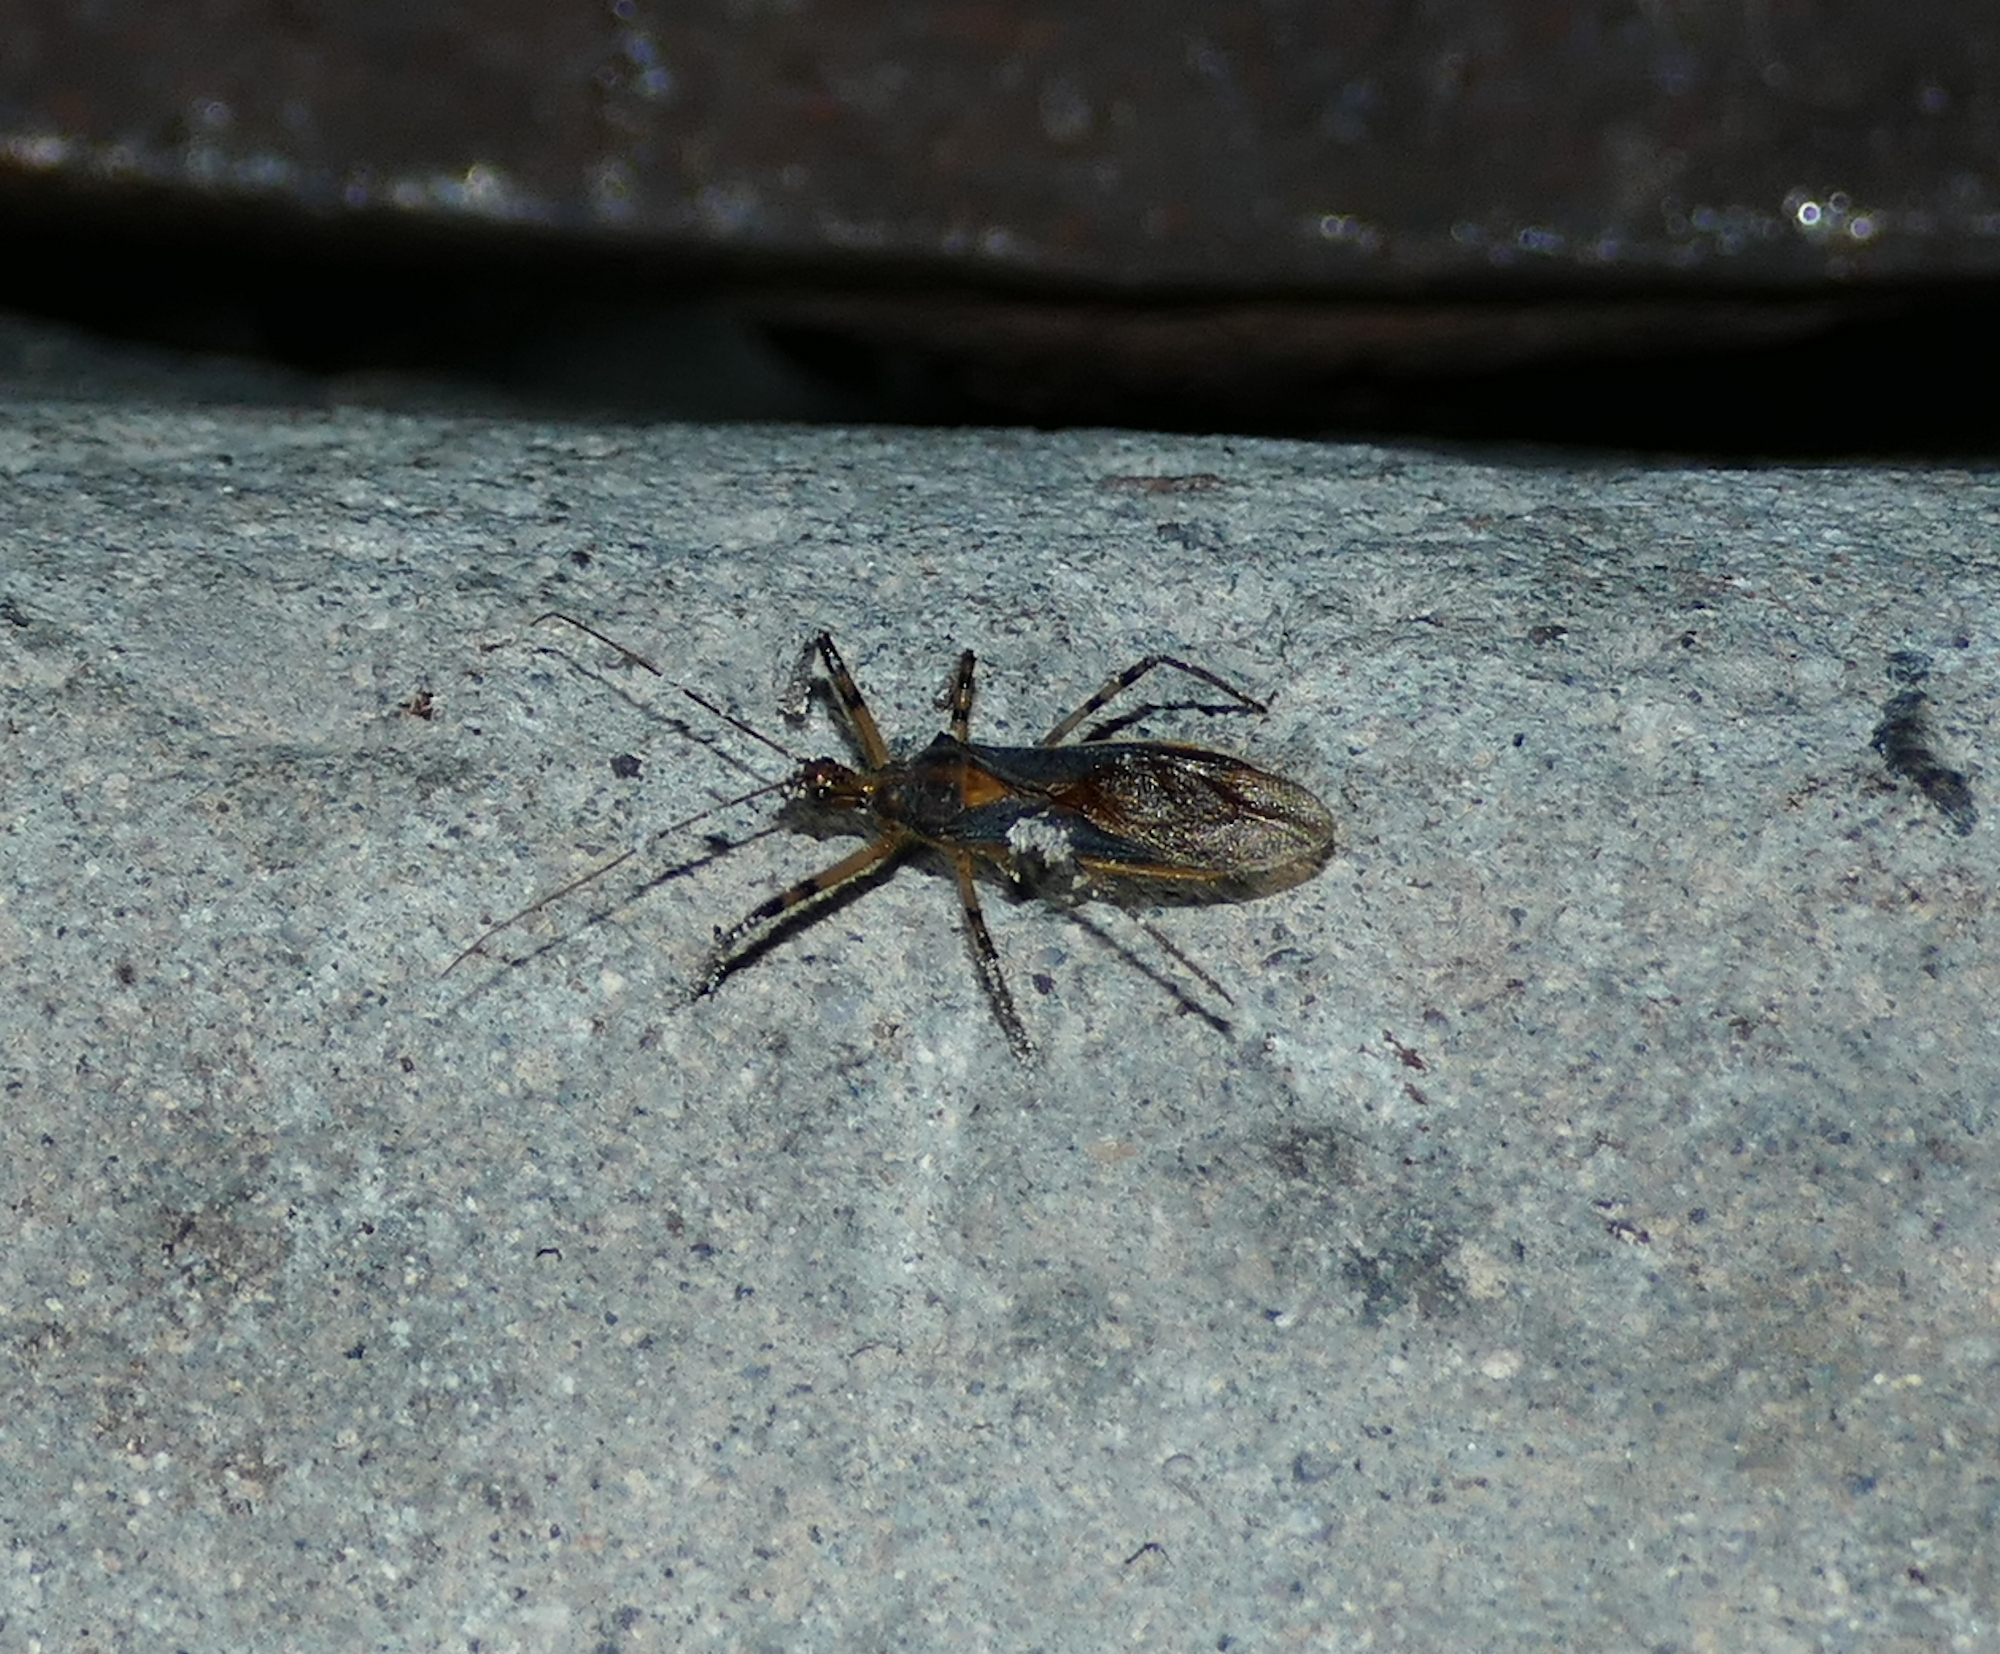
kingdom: Animalia
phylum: Arthropoda
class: Insecta
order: Hemiptera
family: Reduviidae
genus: Castolus
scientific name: Castolus ferox
